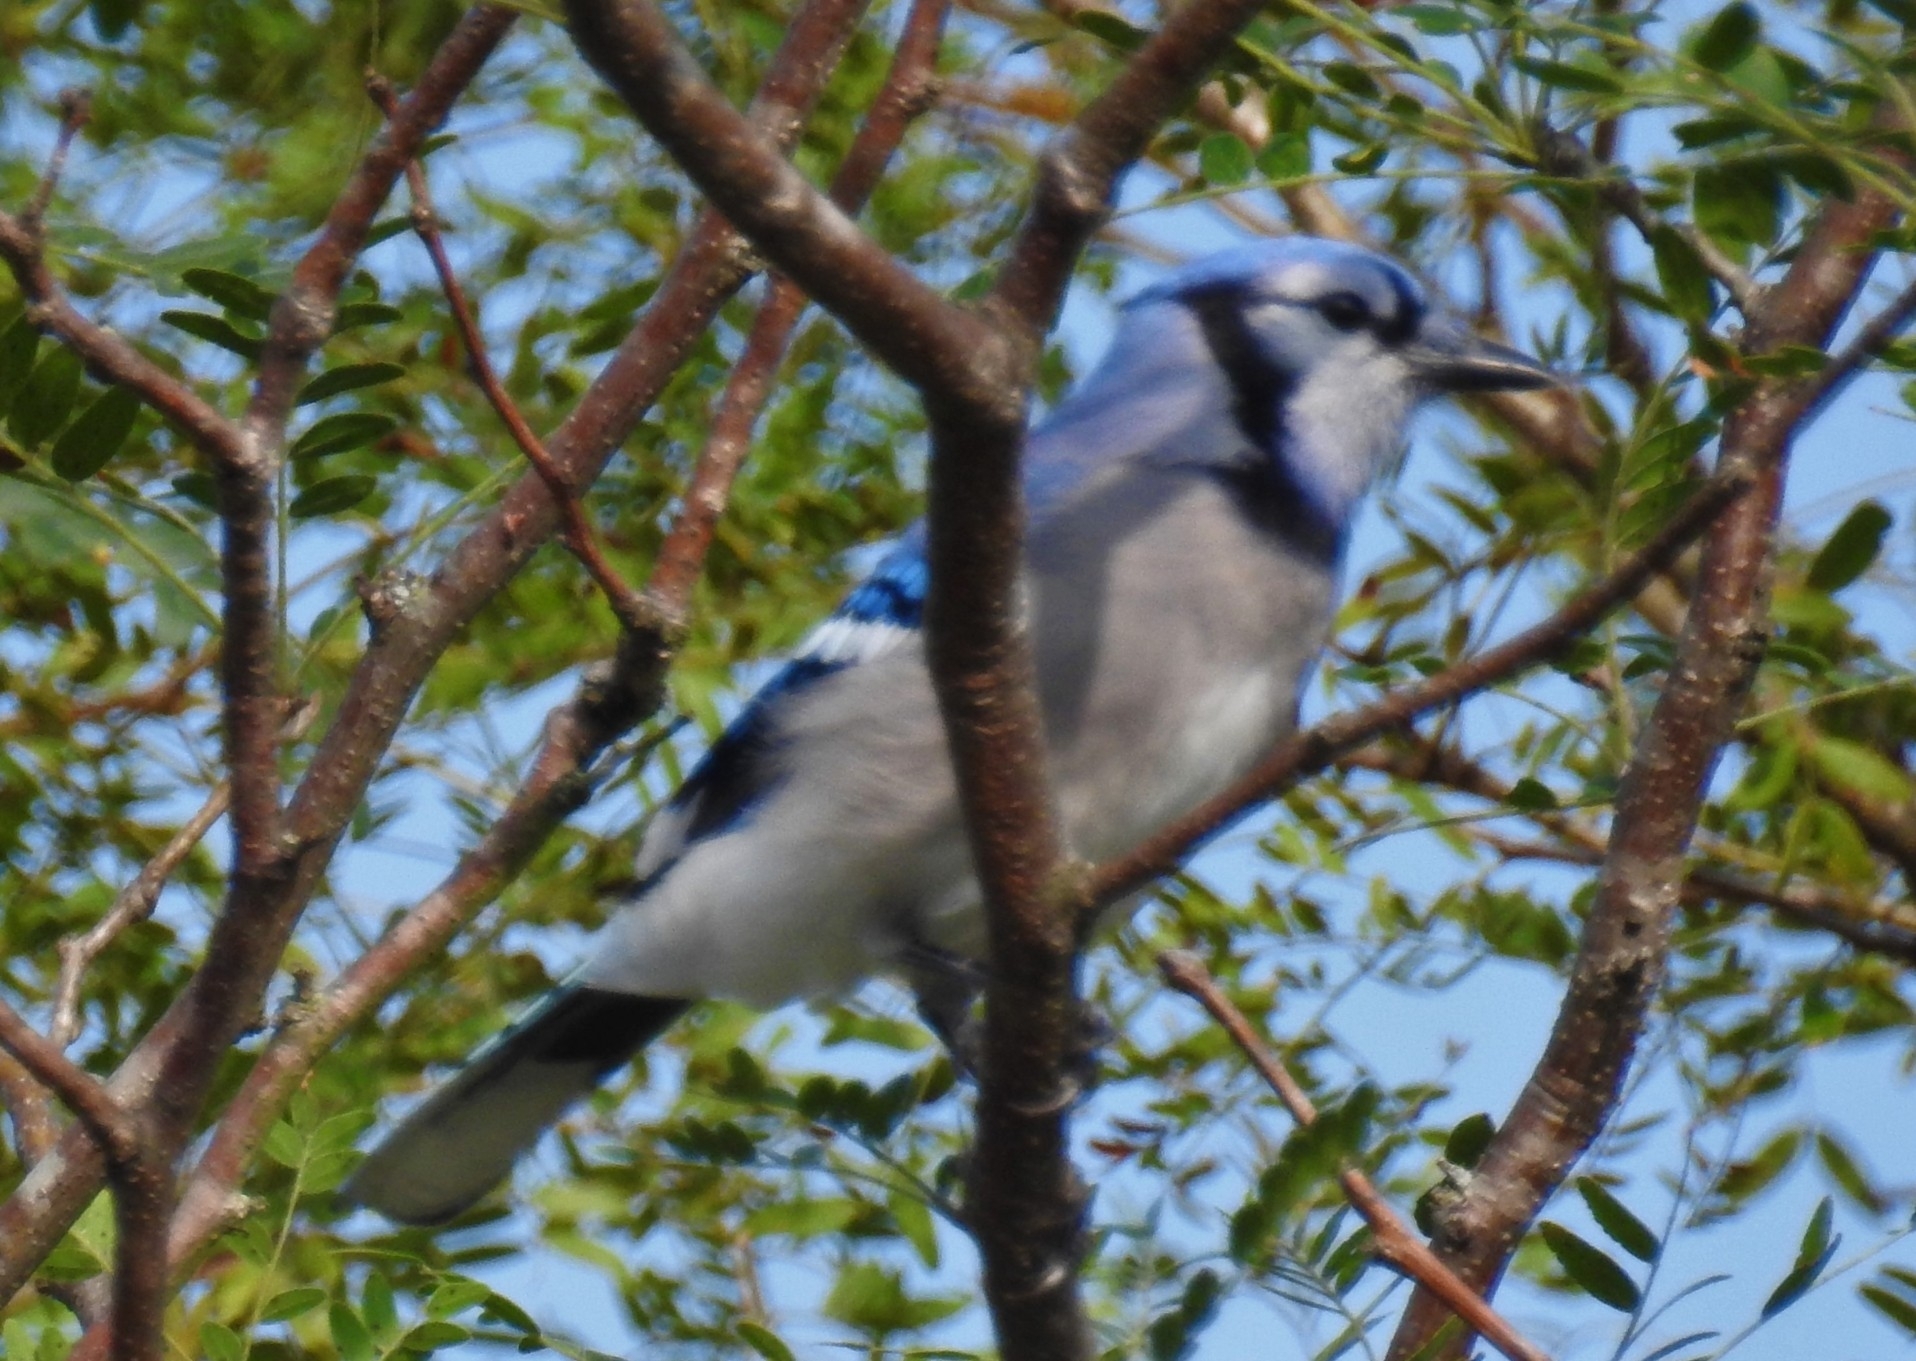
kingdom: Animalia
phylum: Chordata
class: Aves
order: Passeriformes
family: Corvidae
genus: Cyanocitta
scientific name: Cyanocitta cristata
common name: Blue jay
